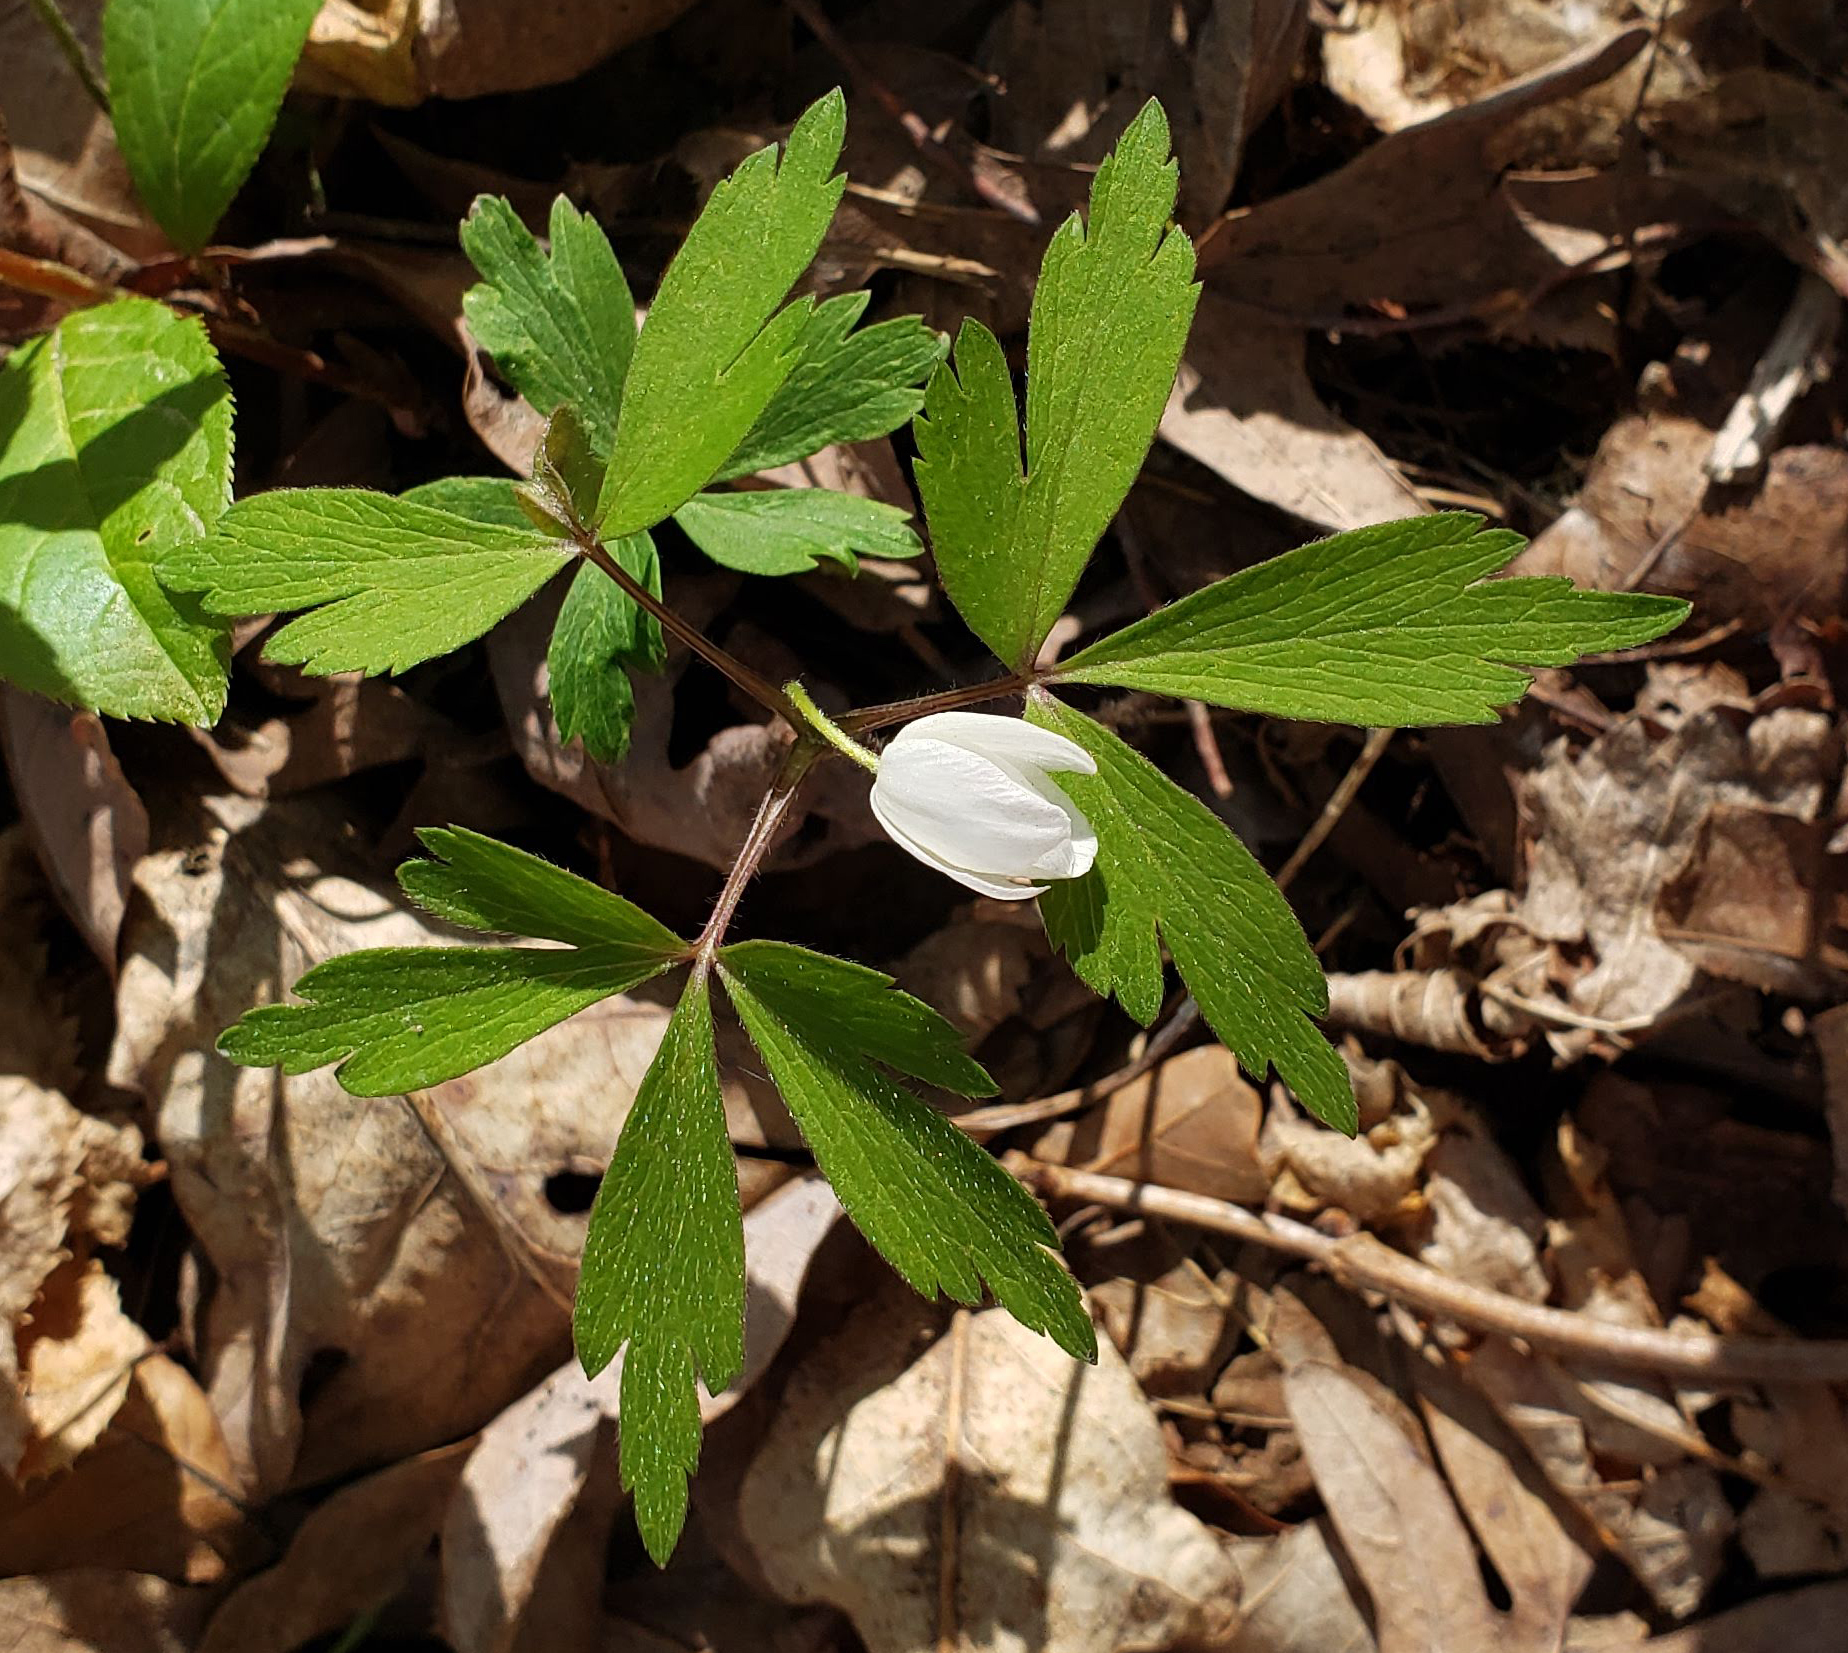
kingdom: Plantae
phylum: Tracheophyta
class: Magnoliopsida
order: Ranunculales
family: Ranunculaceae
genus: Anemone
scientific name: Anemone quinquefolia
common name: Wood anemone
